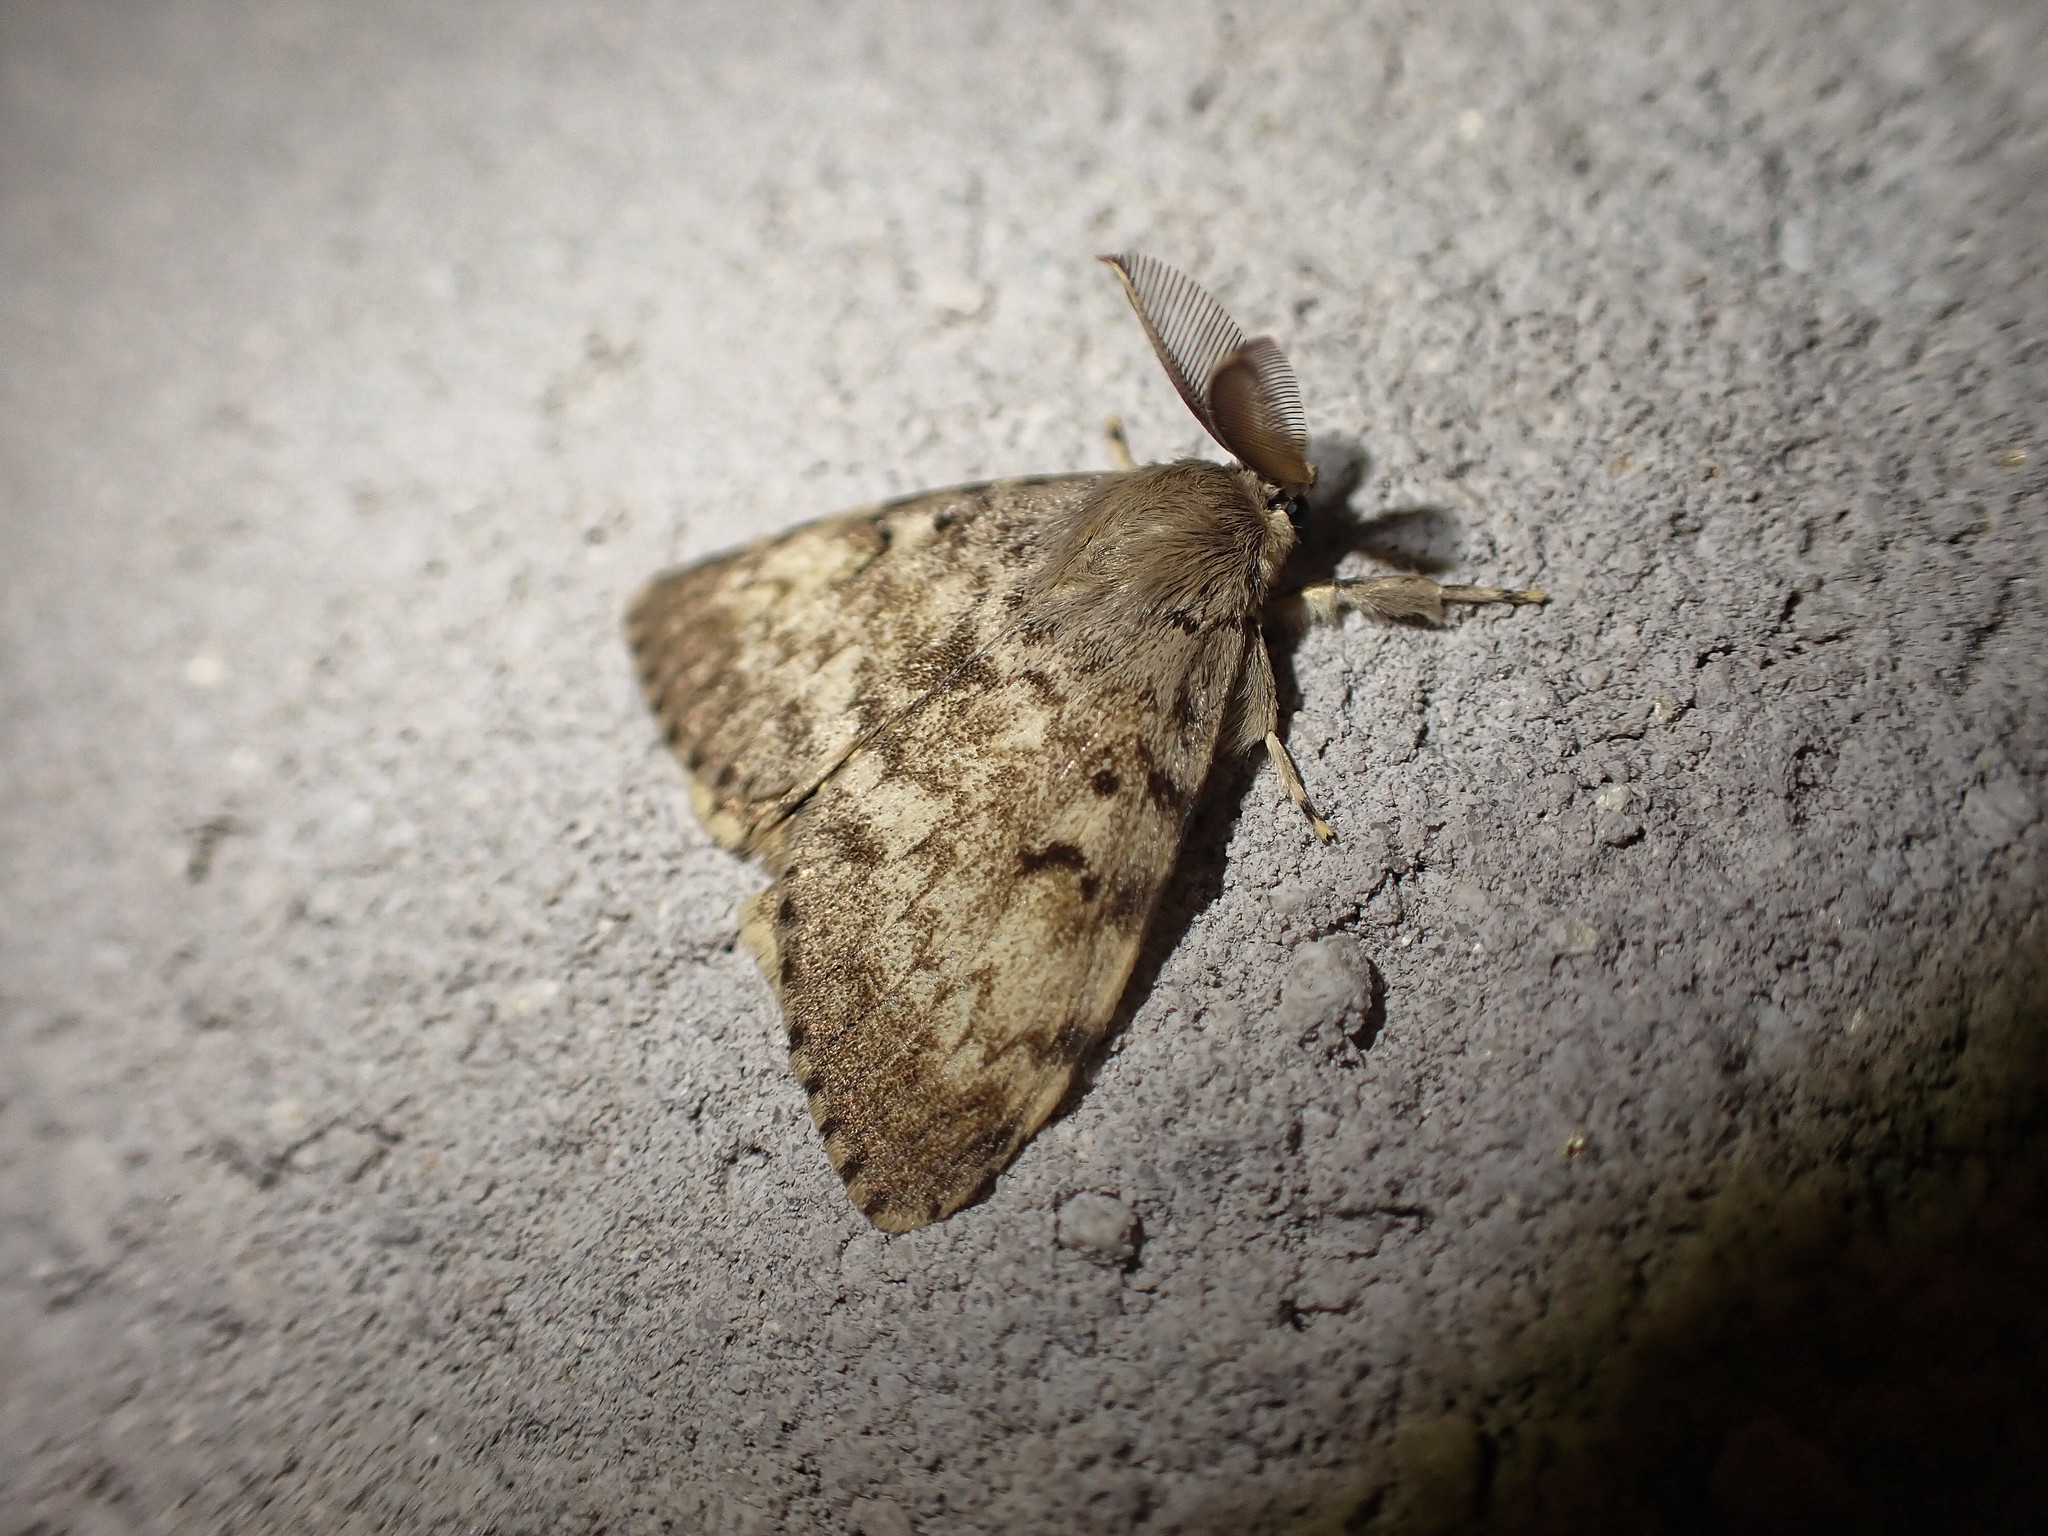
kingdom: Animalia
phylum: Arthropoda
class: Insecta
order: Lepidoptera
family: Erebidae
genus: Lymantria
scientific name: Lymantria dispar
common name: Gypsy moth
